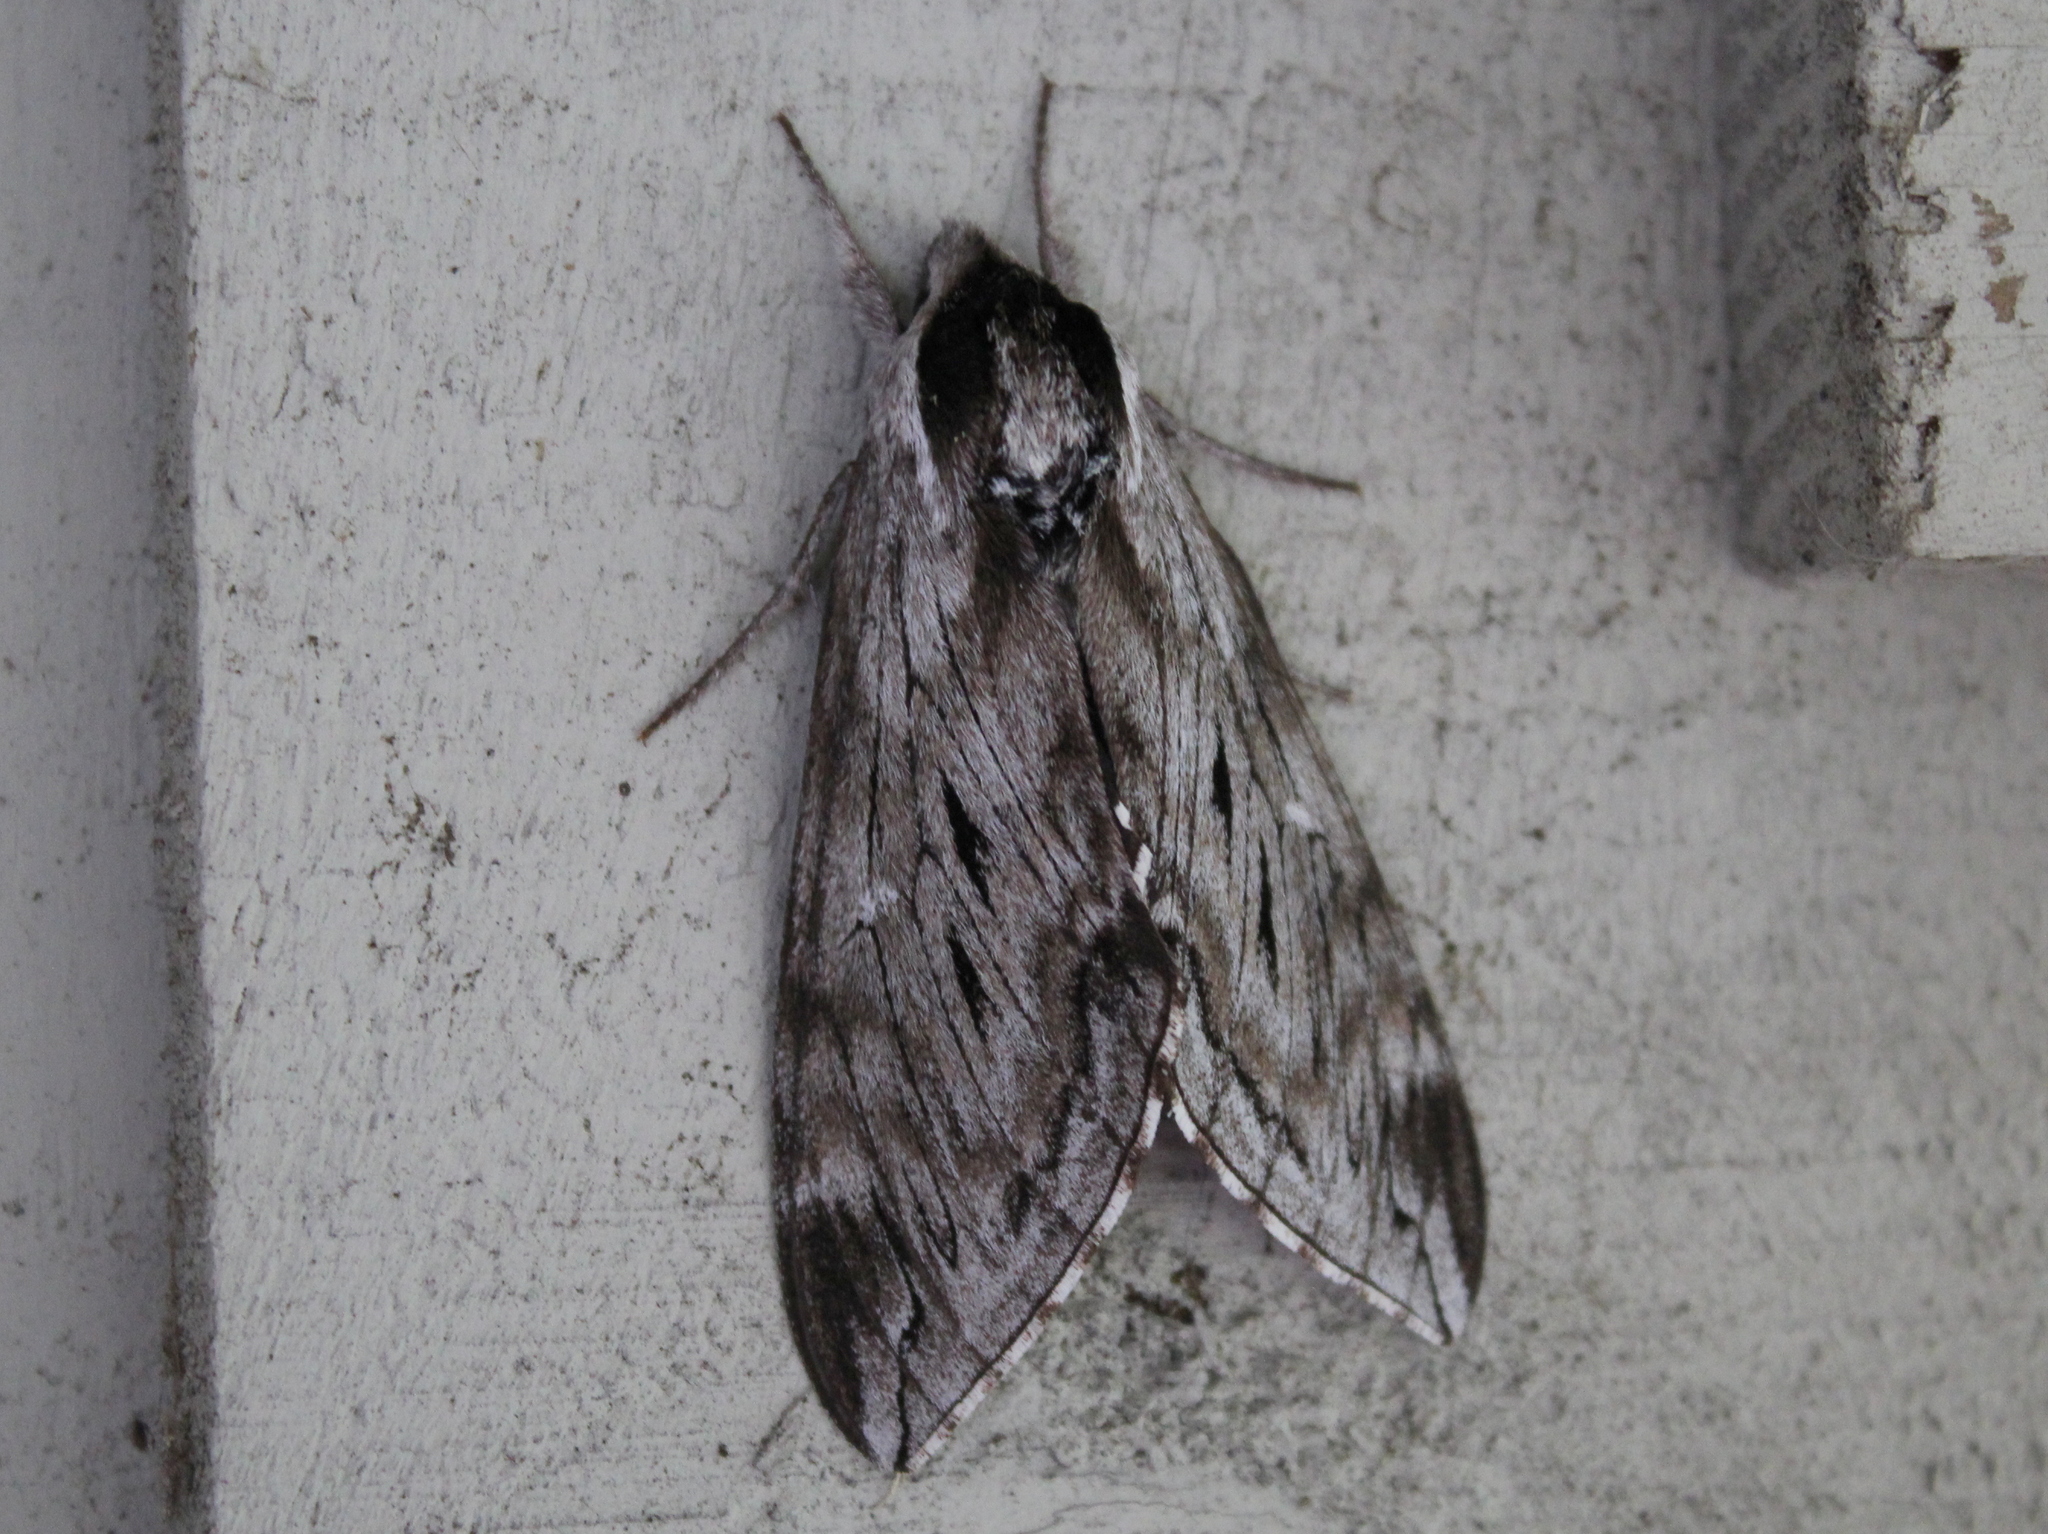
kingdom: Animalia
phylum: Arthropoda
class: Insecta
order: Lepidoptera
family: Sphingidae
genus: Sphinx
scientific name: Sphinx poecila
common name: Northern apple sphinx
